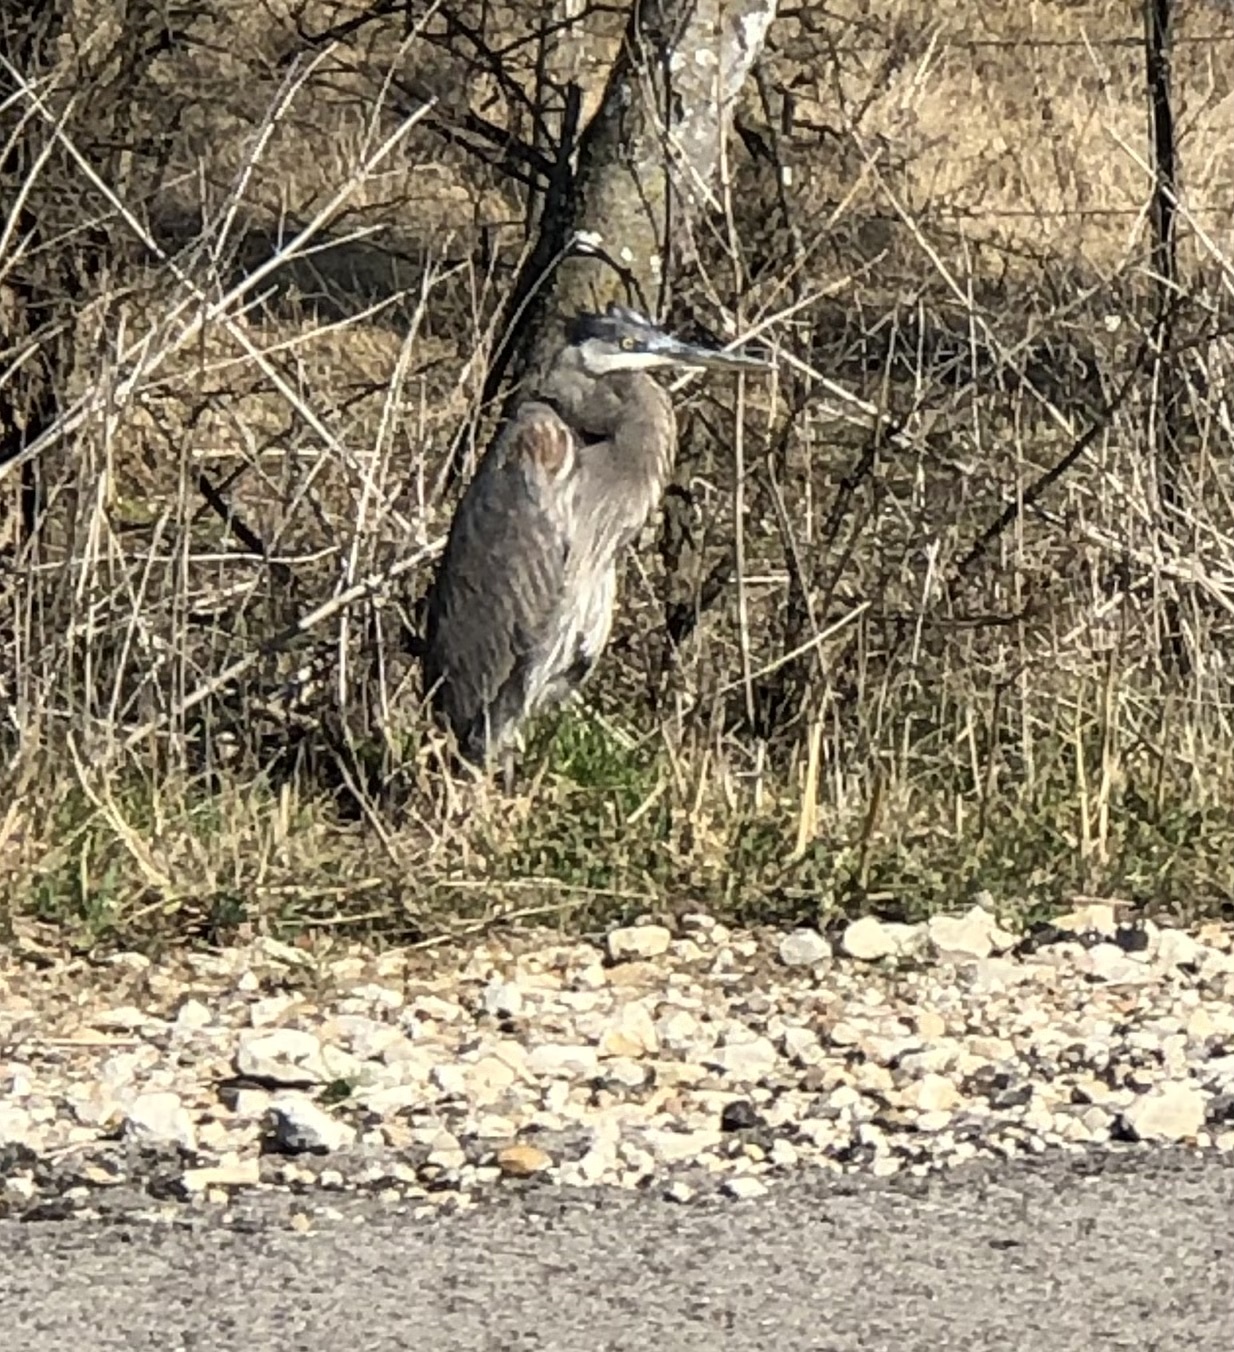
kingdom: Animalia
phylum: Chordata
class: Aves
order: Pelecaniformes
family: Ardeidae
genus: Ardea
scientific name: Ardea herodias
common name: Great blue heron
